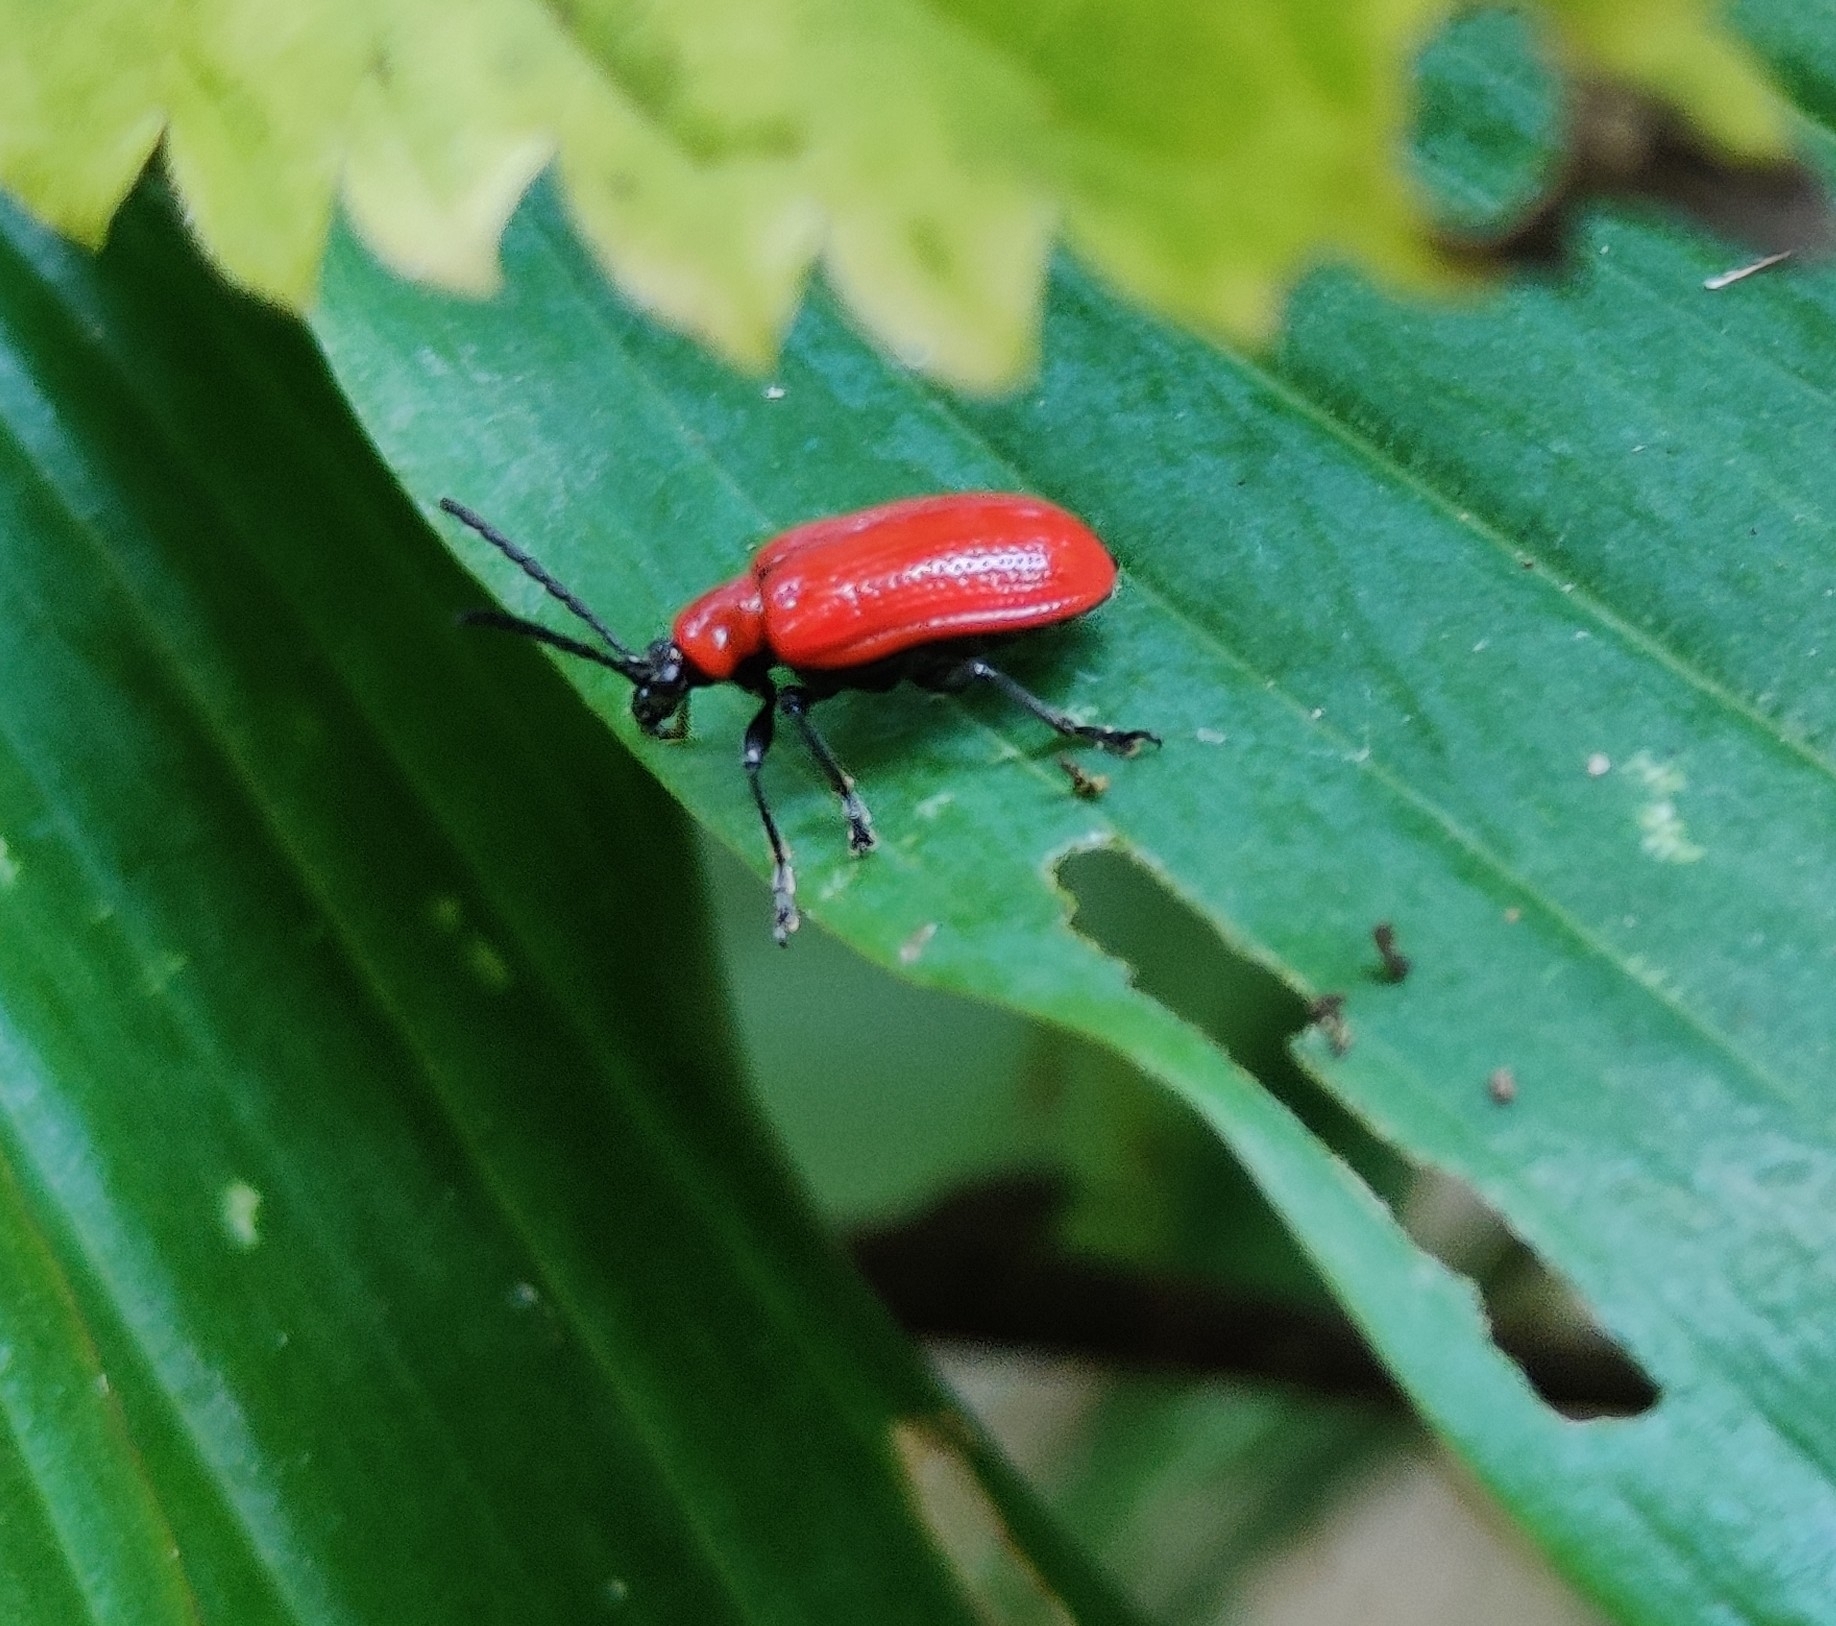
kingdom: Animalia
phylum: Arthropoda
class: Insecta
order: Coleoptera
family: Chrysomelidae
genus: Lilioceris
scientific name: Lilioceris lilii
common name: Lily beetle
